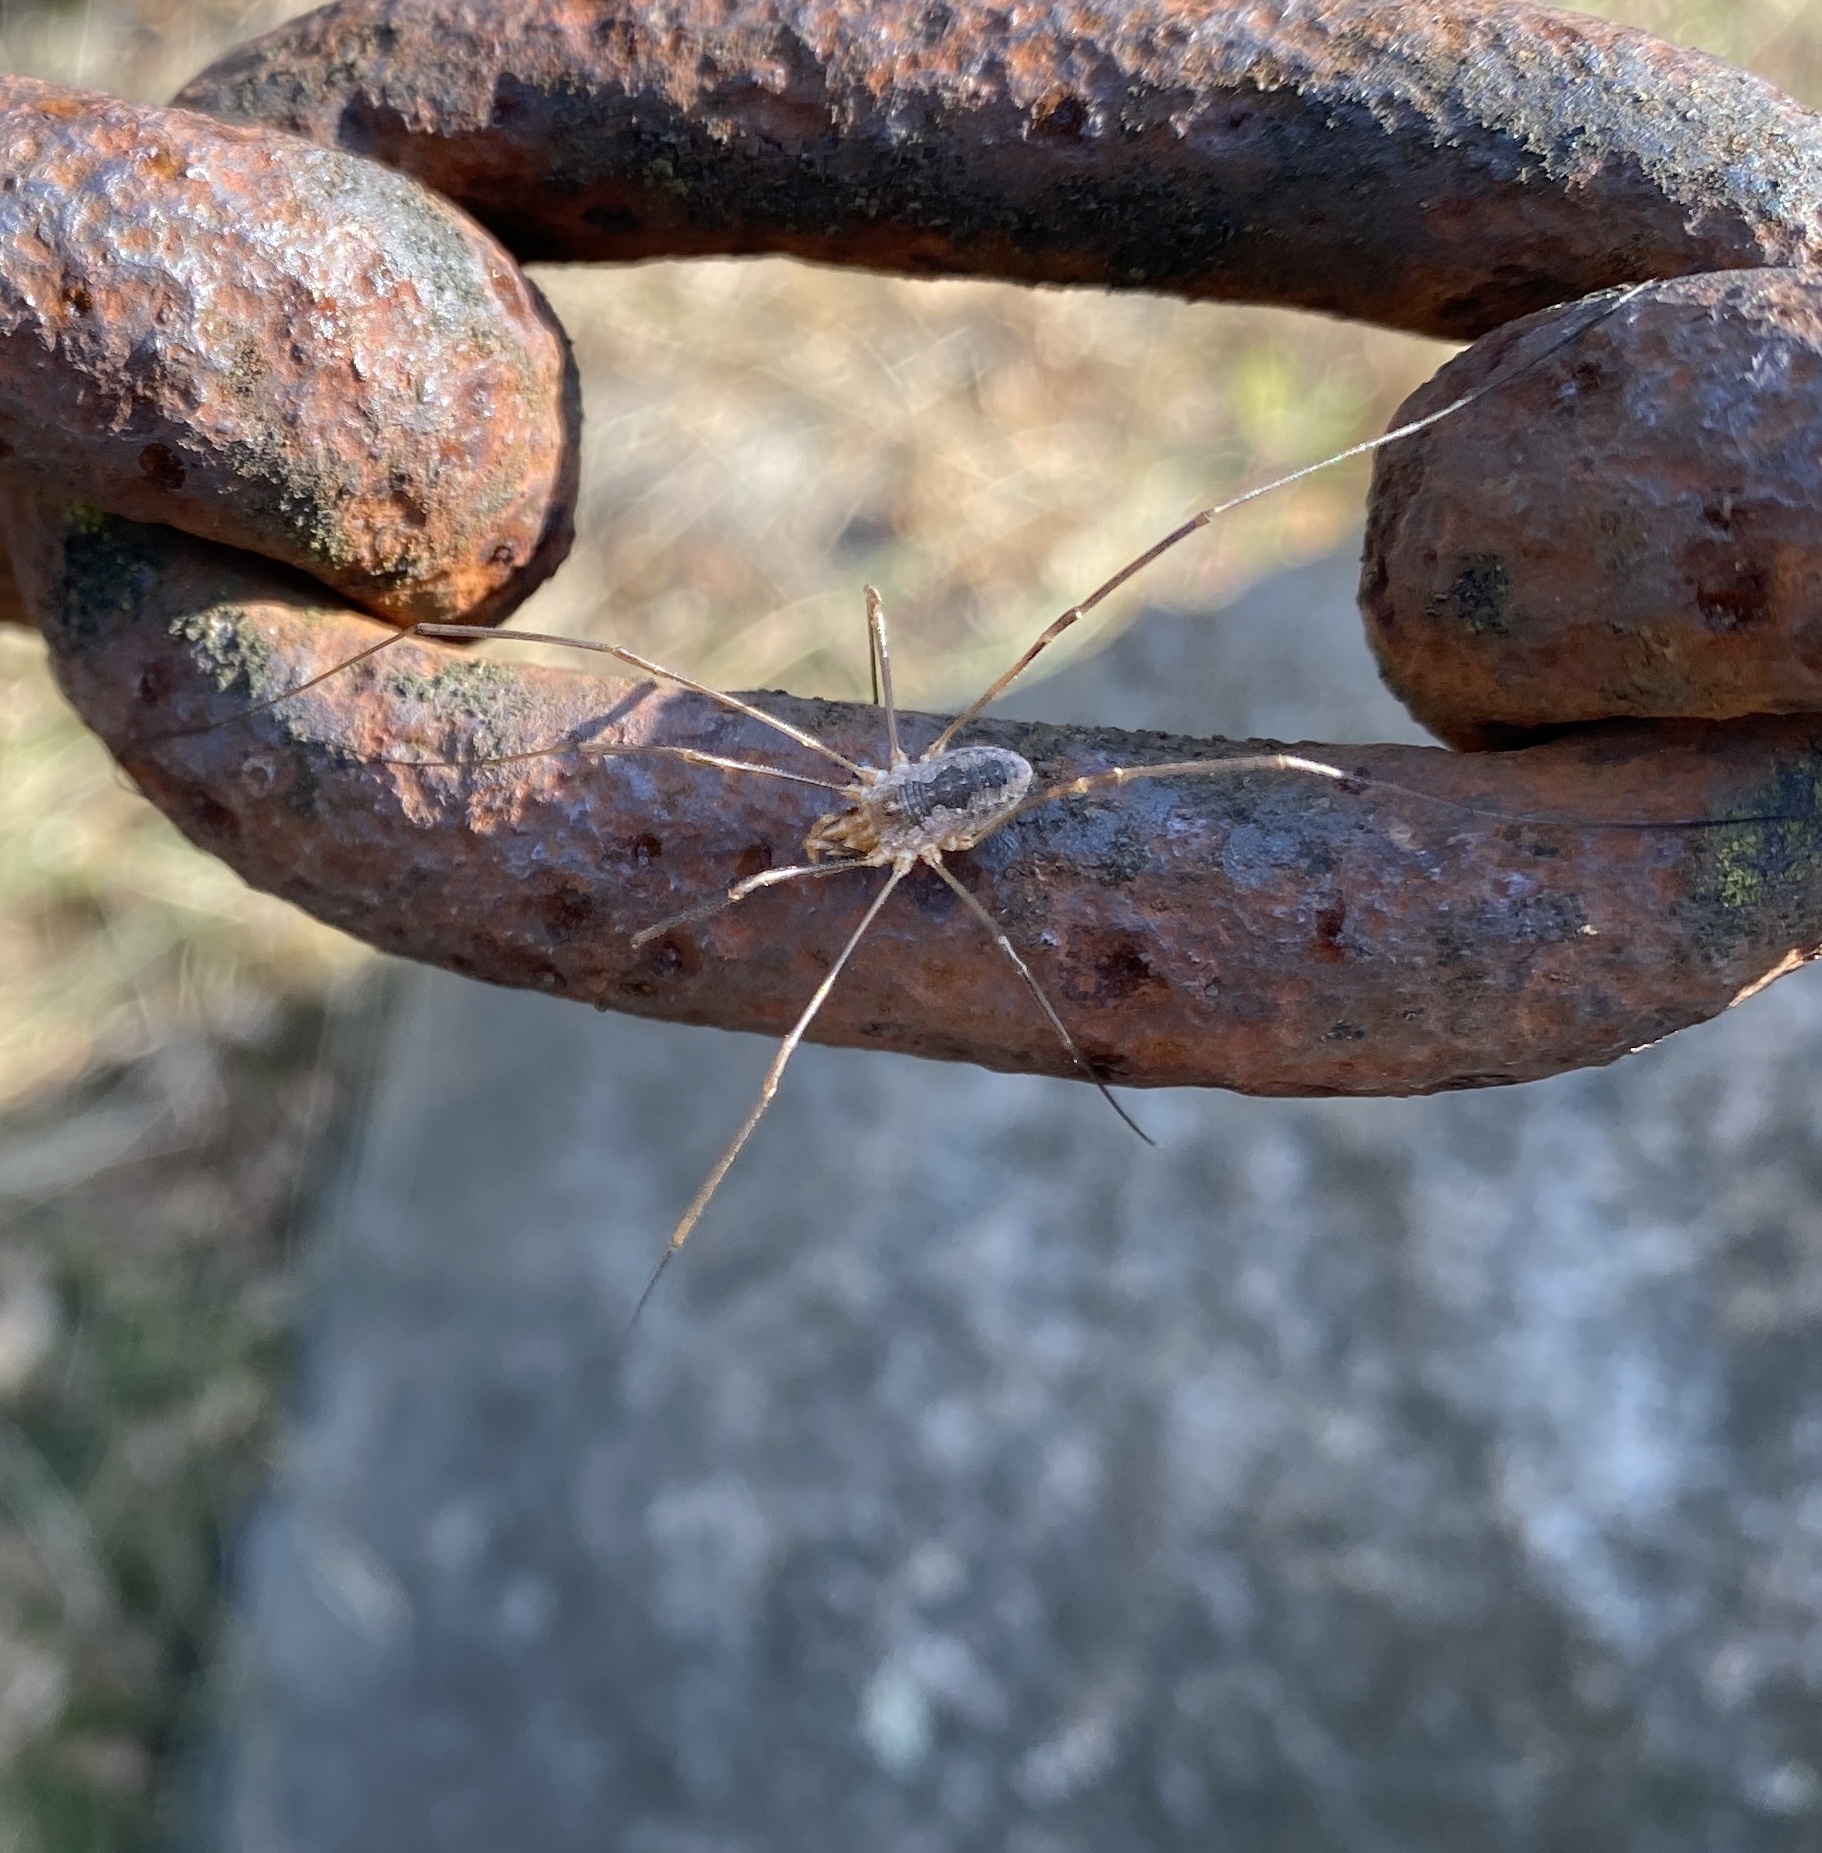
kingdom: Animalia
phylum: Arthropoda
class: Arachnida
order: Opiliones
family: Phalangiidae
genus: Phalangium
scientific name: Phalangium opilio
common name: Daddy longleg
